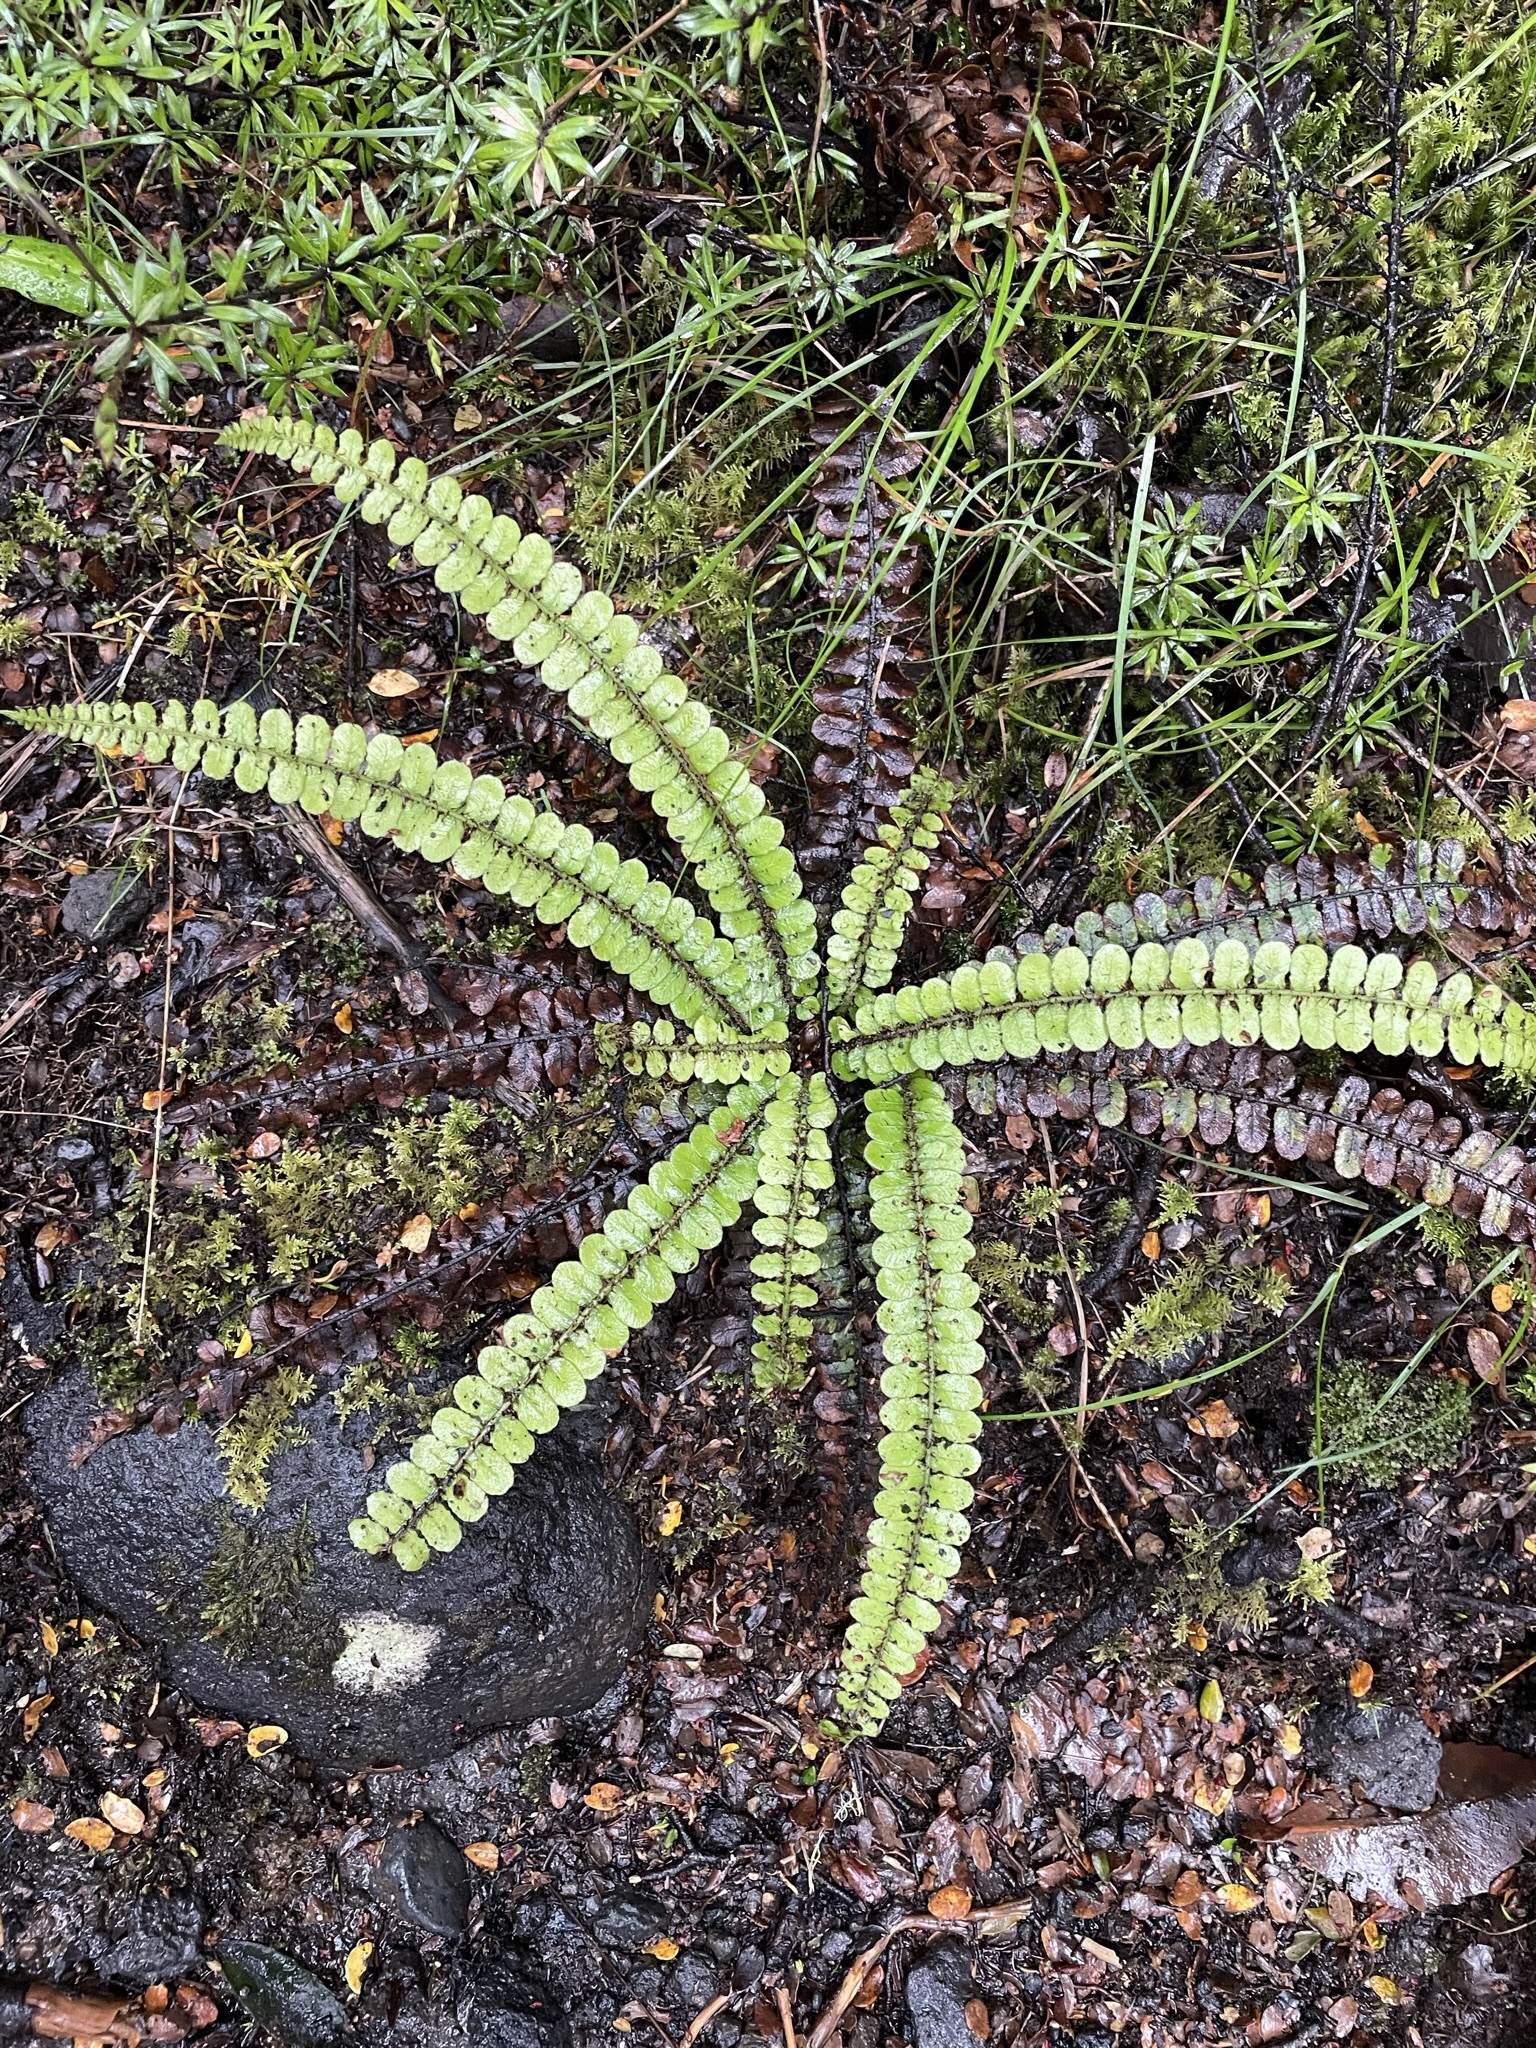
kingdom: Plantae
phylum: Tracheophyta
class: Polypodiopsida
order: Polypodiales
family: Blechnaceae
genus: Cranfillia
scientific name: Cranfillia fluviatilis
